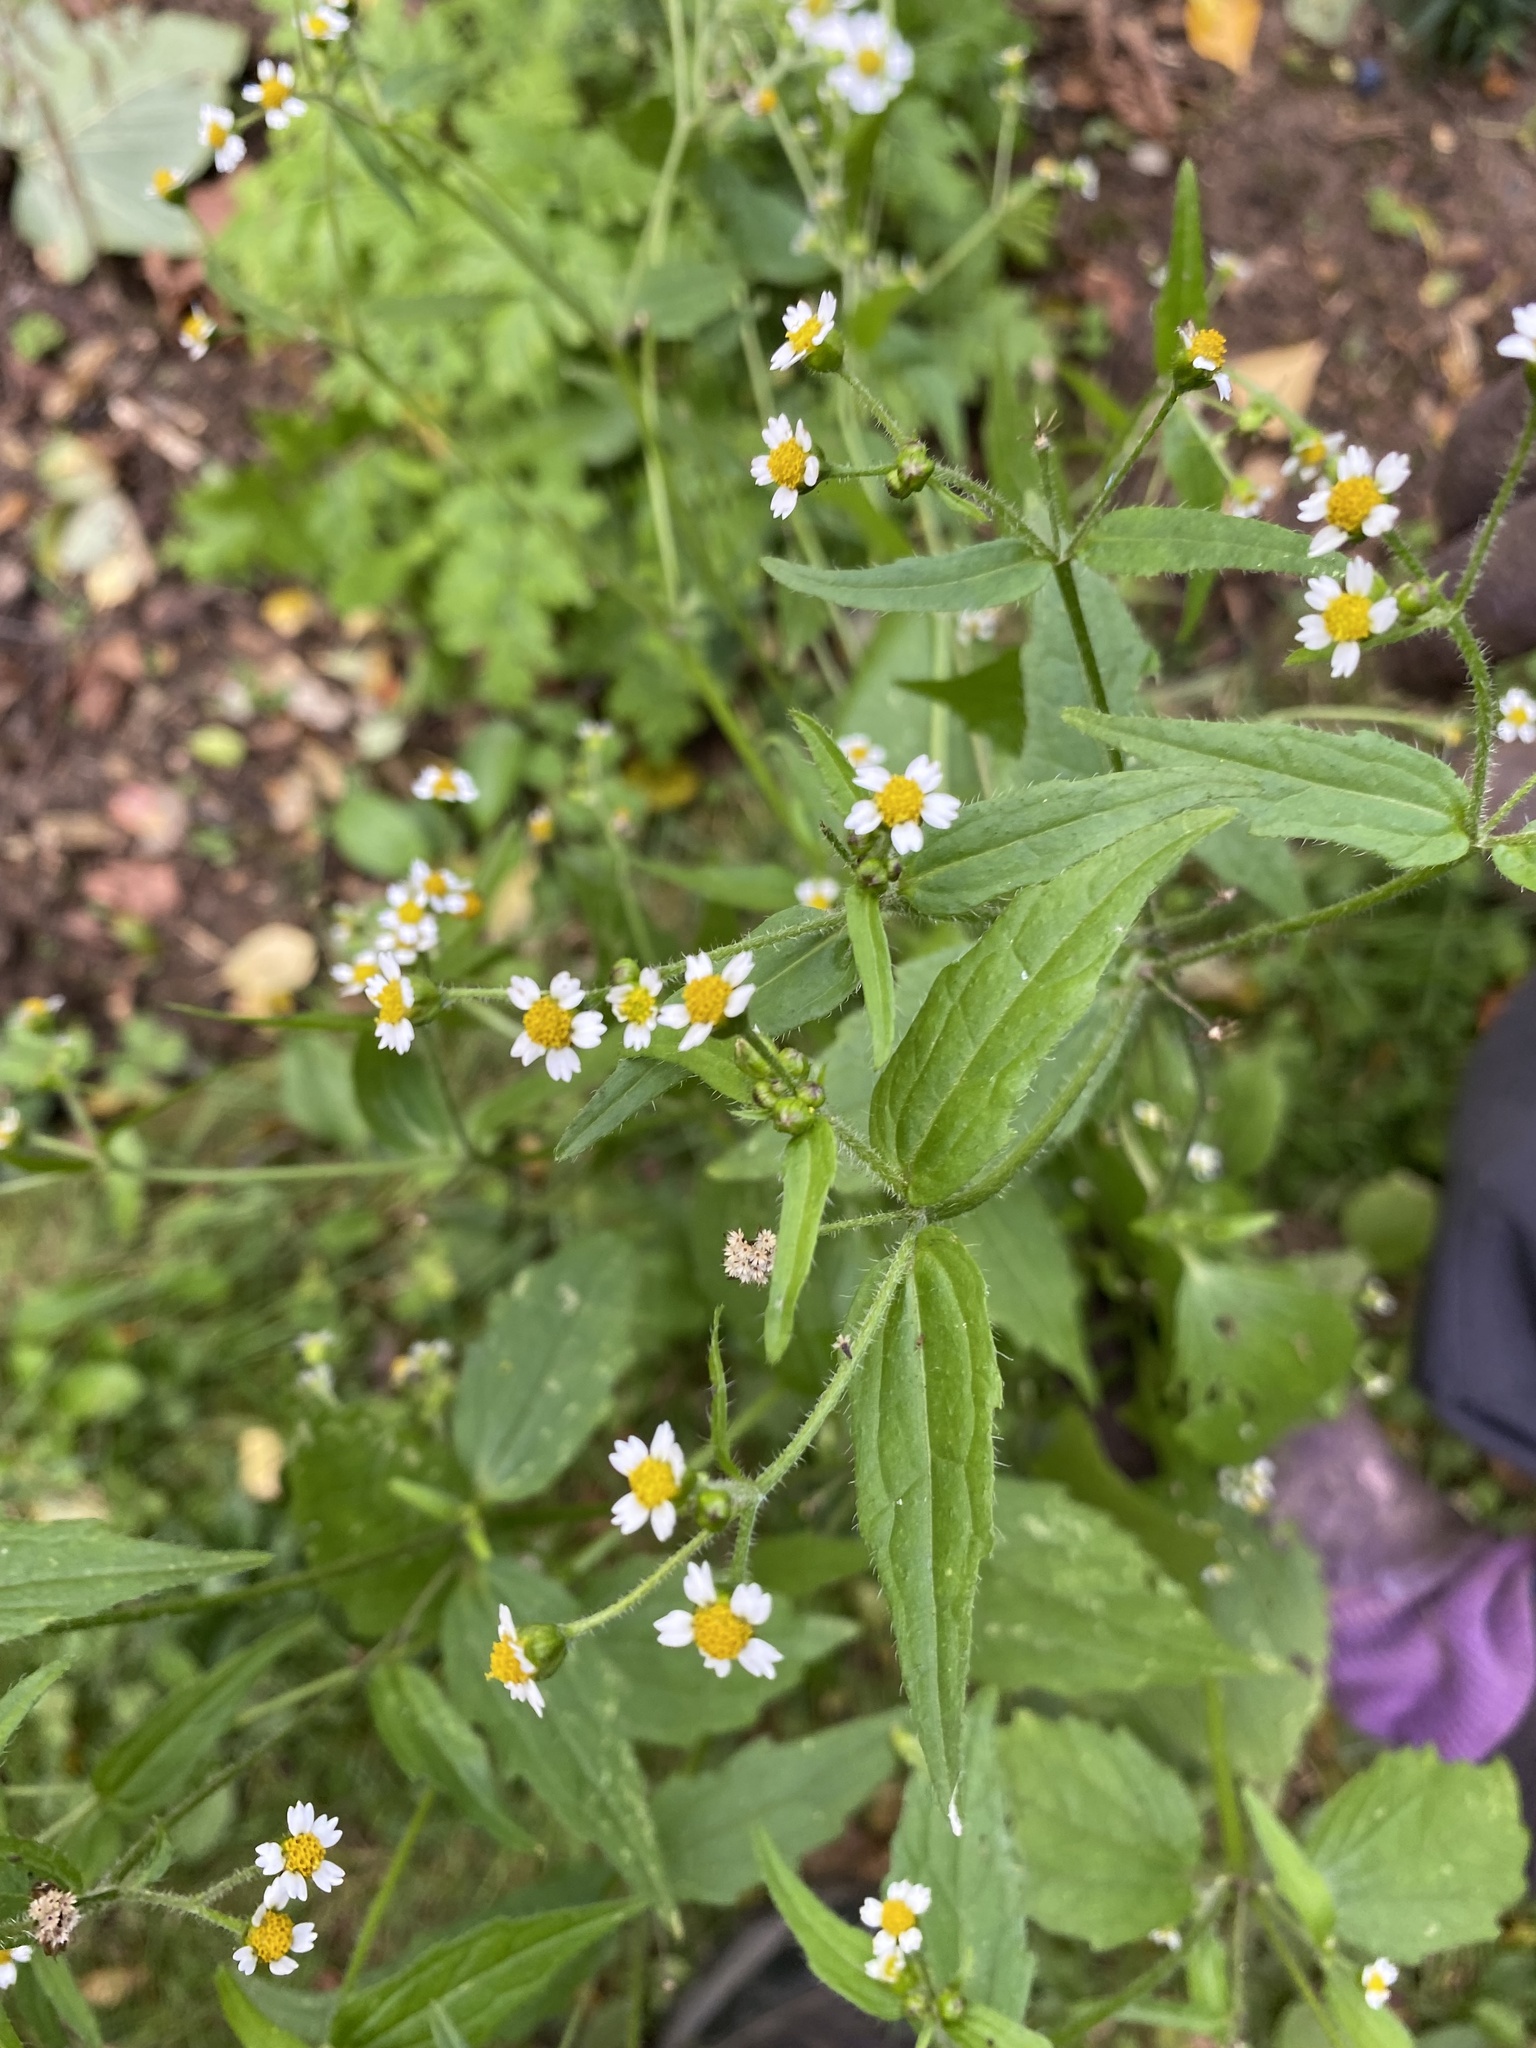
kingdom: Plantae
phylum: Tracheophyta
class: Magnoliopsida
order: Asterales
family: Asteraceae
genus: Galinsoga
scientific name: Galinsoga quadriradiata
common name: Shaggy soldier
